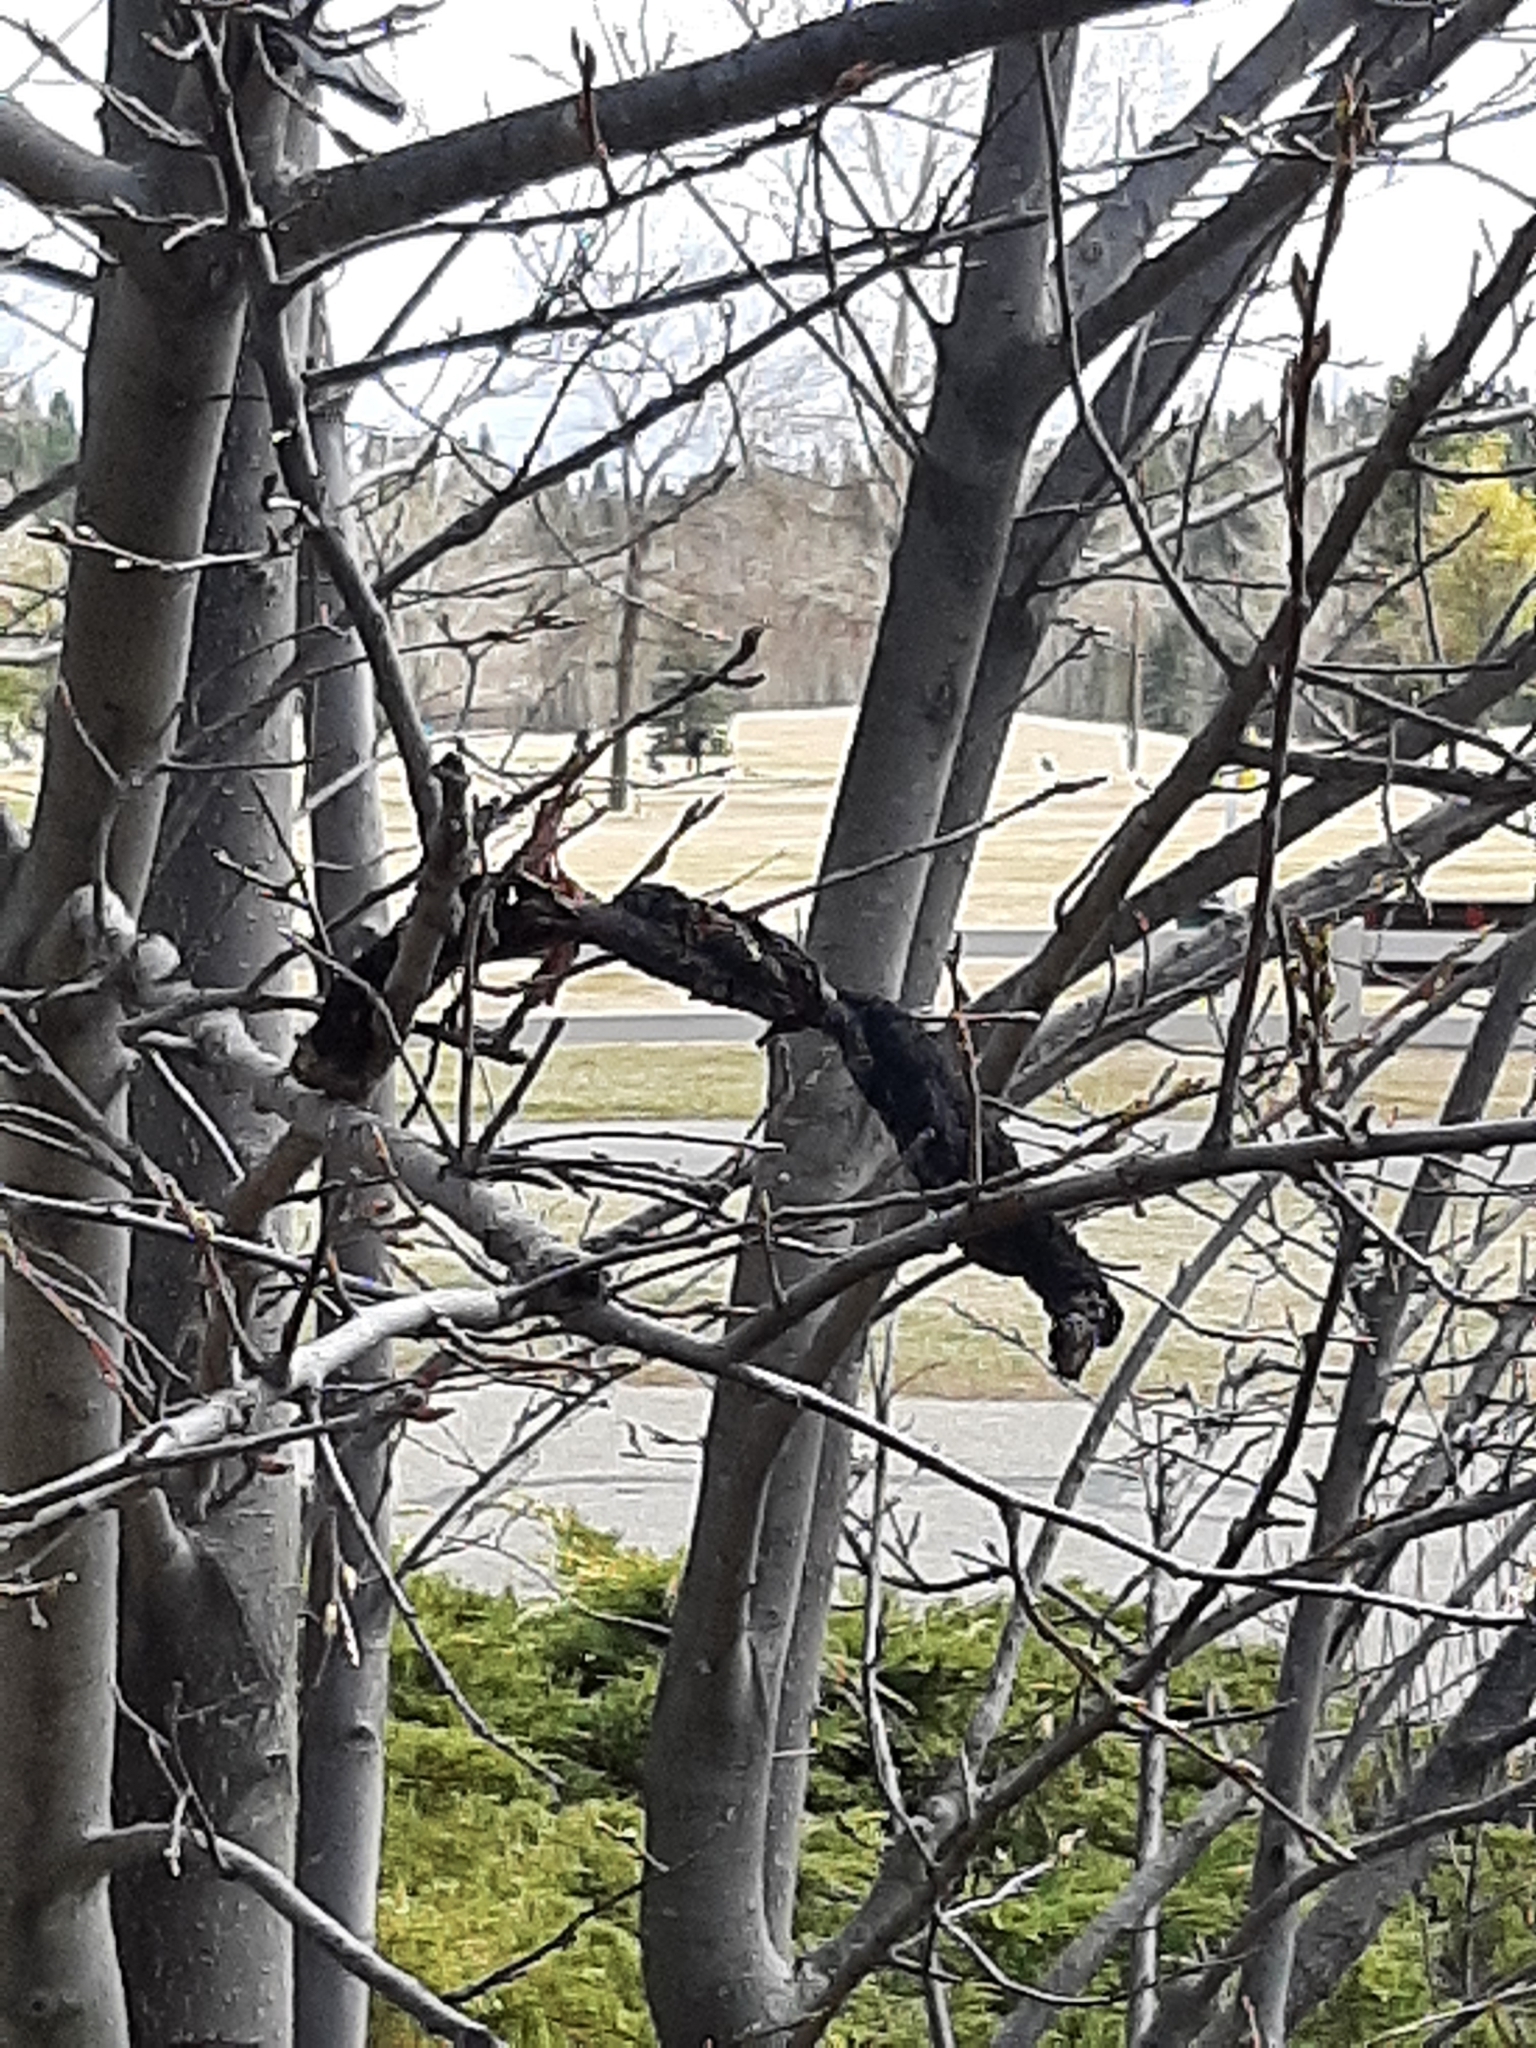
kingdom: Fungi
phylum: Ascomycota
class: Dothideomycetes
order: Venturiales
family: Venturiaceae
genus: Apiosporina
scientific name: Apiosporina morbosa
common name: Black knot
